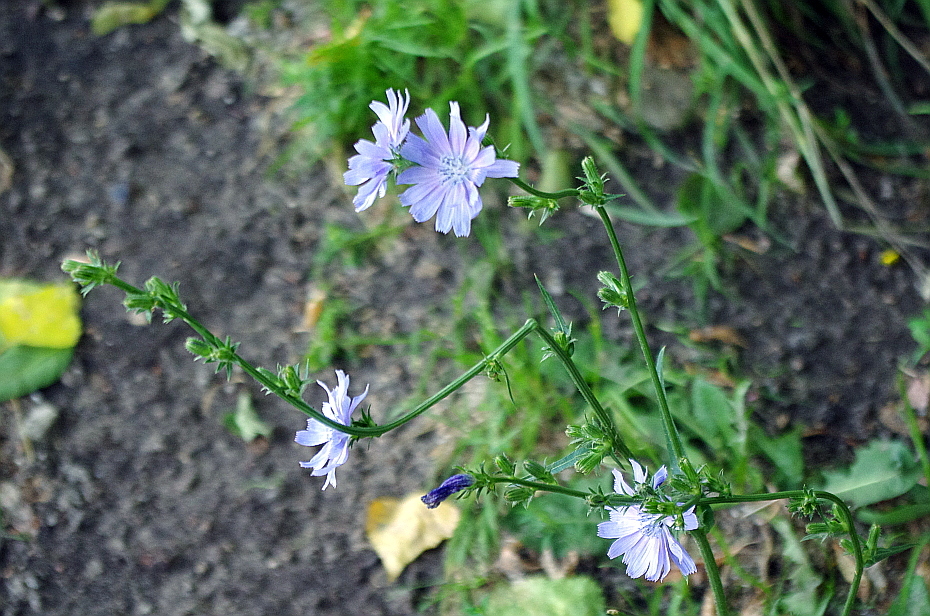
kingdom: Plantae
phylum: Tracheophyta
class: Magnoliopsida
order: Asterales
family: Asteraceae
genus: Cichorium
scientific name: Cichorium intybus
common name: Chicory
